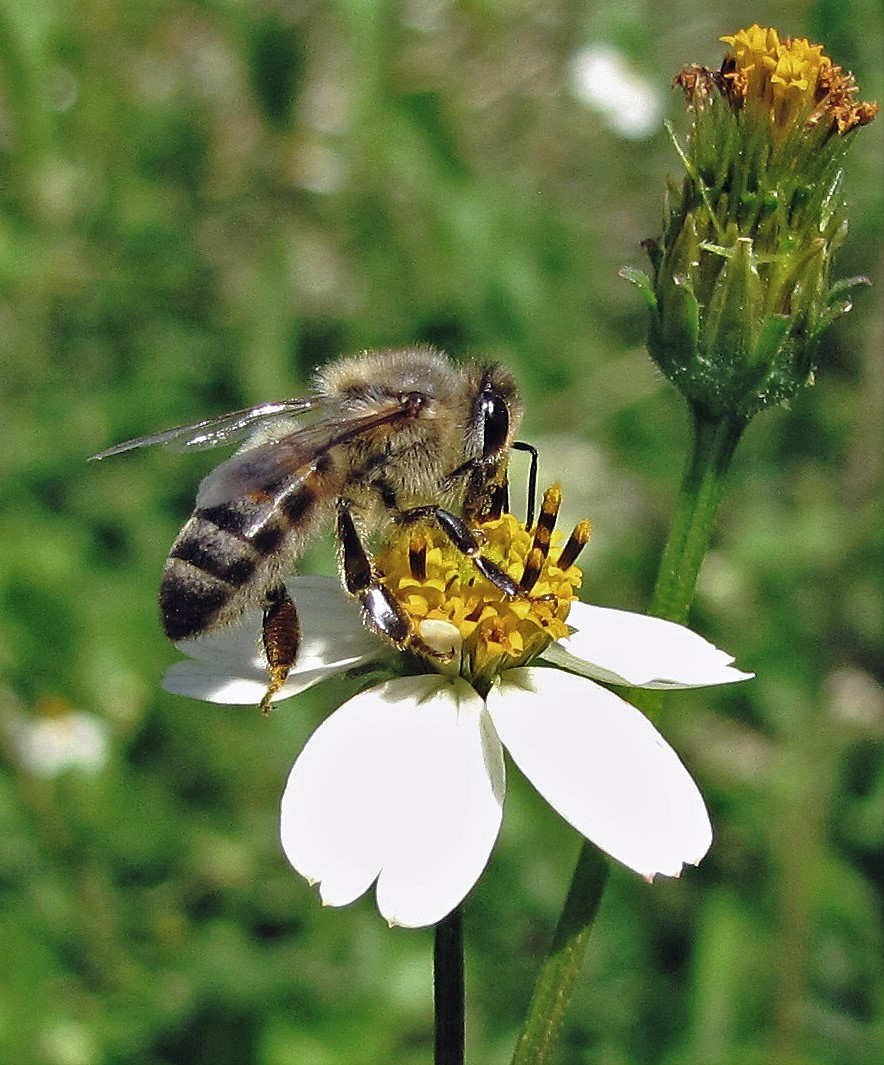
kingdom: Animalia
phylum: Arthropoda
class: Insecta
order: Hymenoptera
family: Apidae
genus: Apis
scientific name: Apis mellifera
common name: Honey bee
